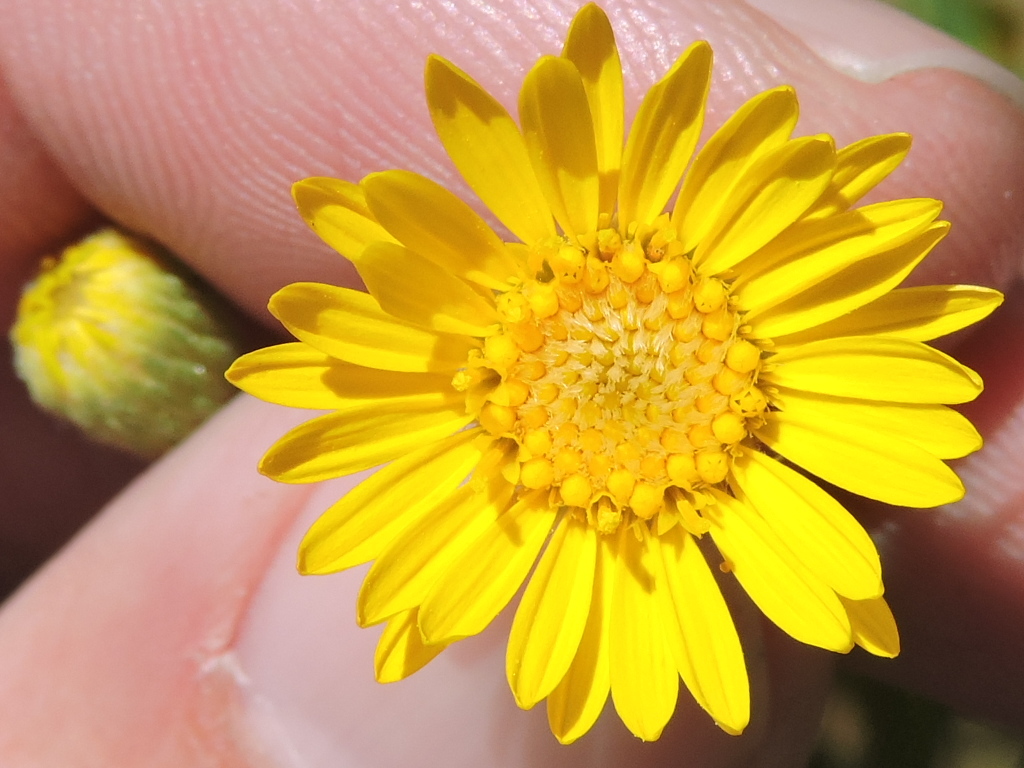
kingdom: Plantae
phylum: Tracheophyta
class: Magnoliopsida
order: Asterales
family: Asteraceae
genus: Heterotheca
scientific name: Heterotheca subaxillaris
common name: Camphorweed
